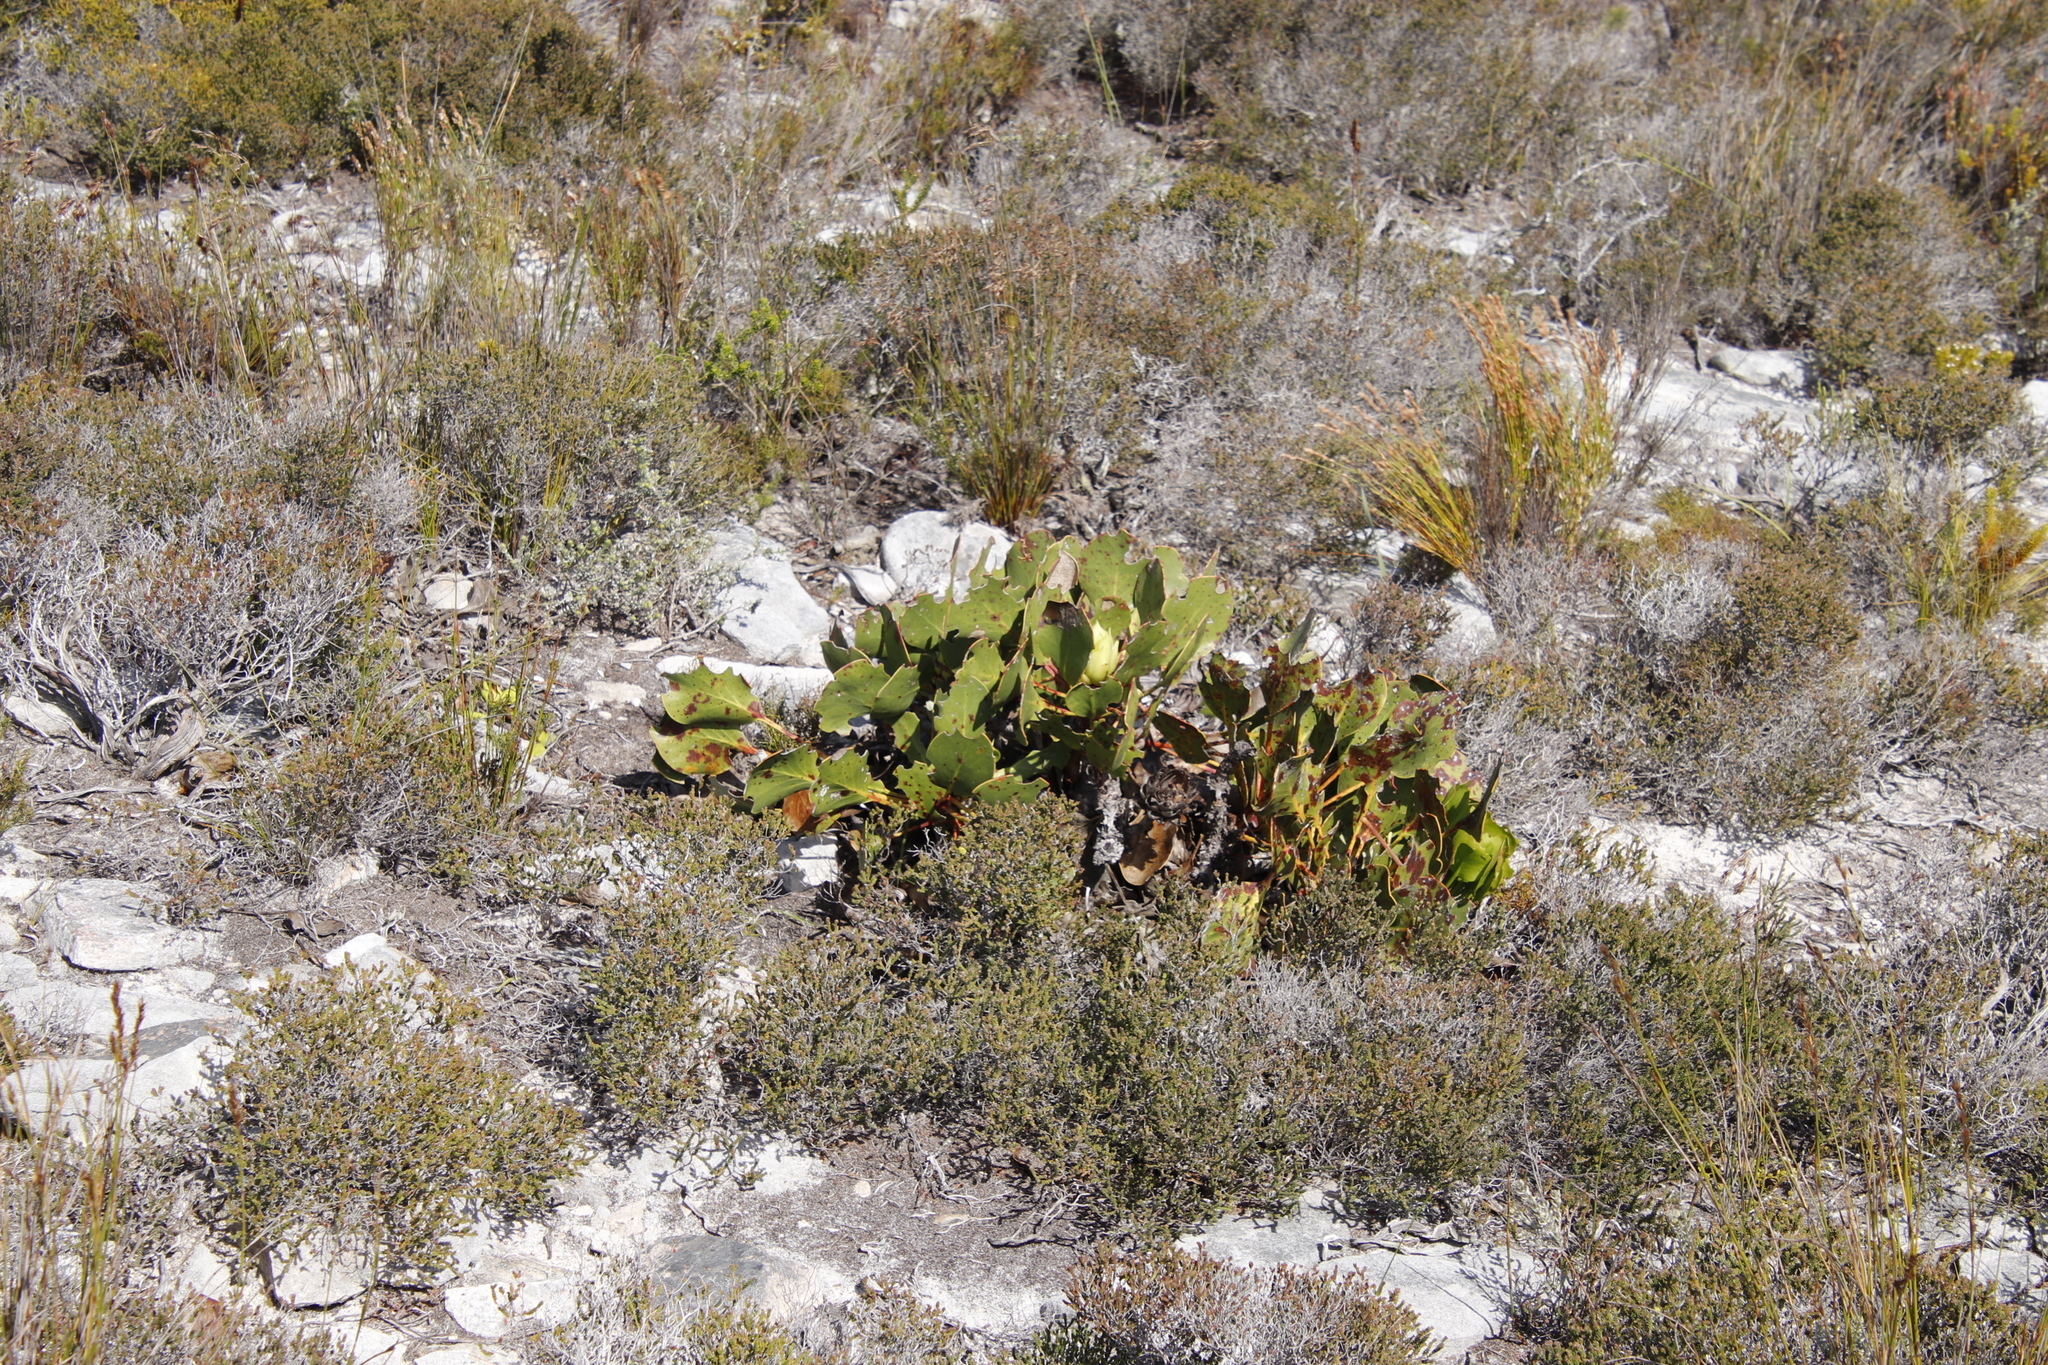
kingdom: Plantae
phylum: Tracheophyta
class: Magnoliopsida
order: Proteales
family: Proteaceae
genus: Protea
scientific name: Protea cynaroides
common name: King protea
